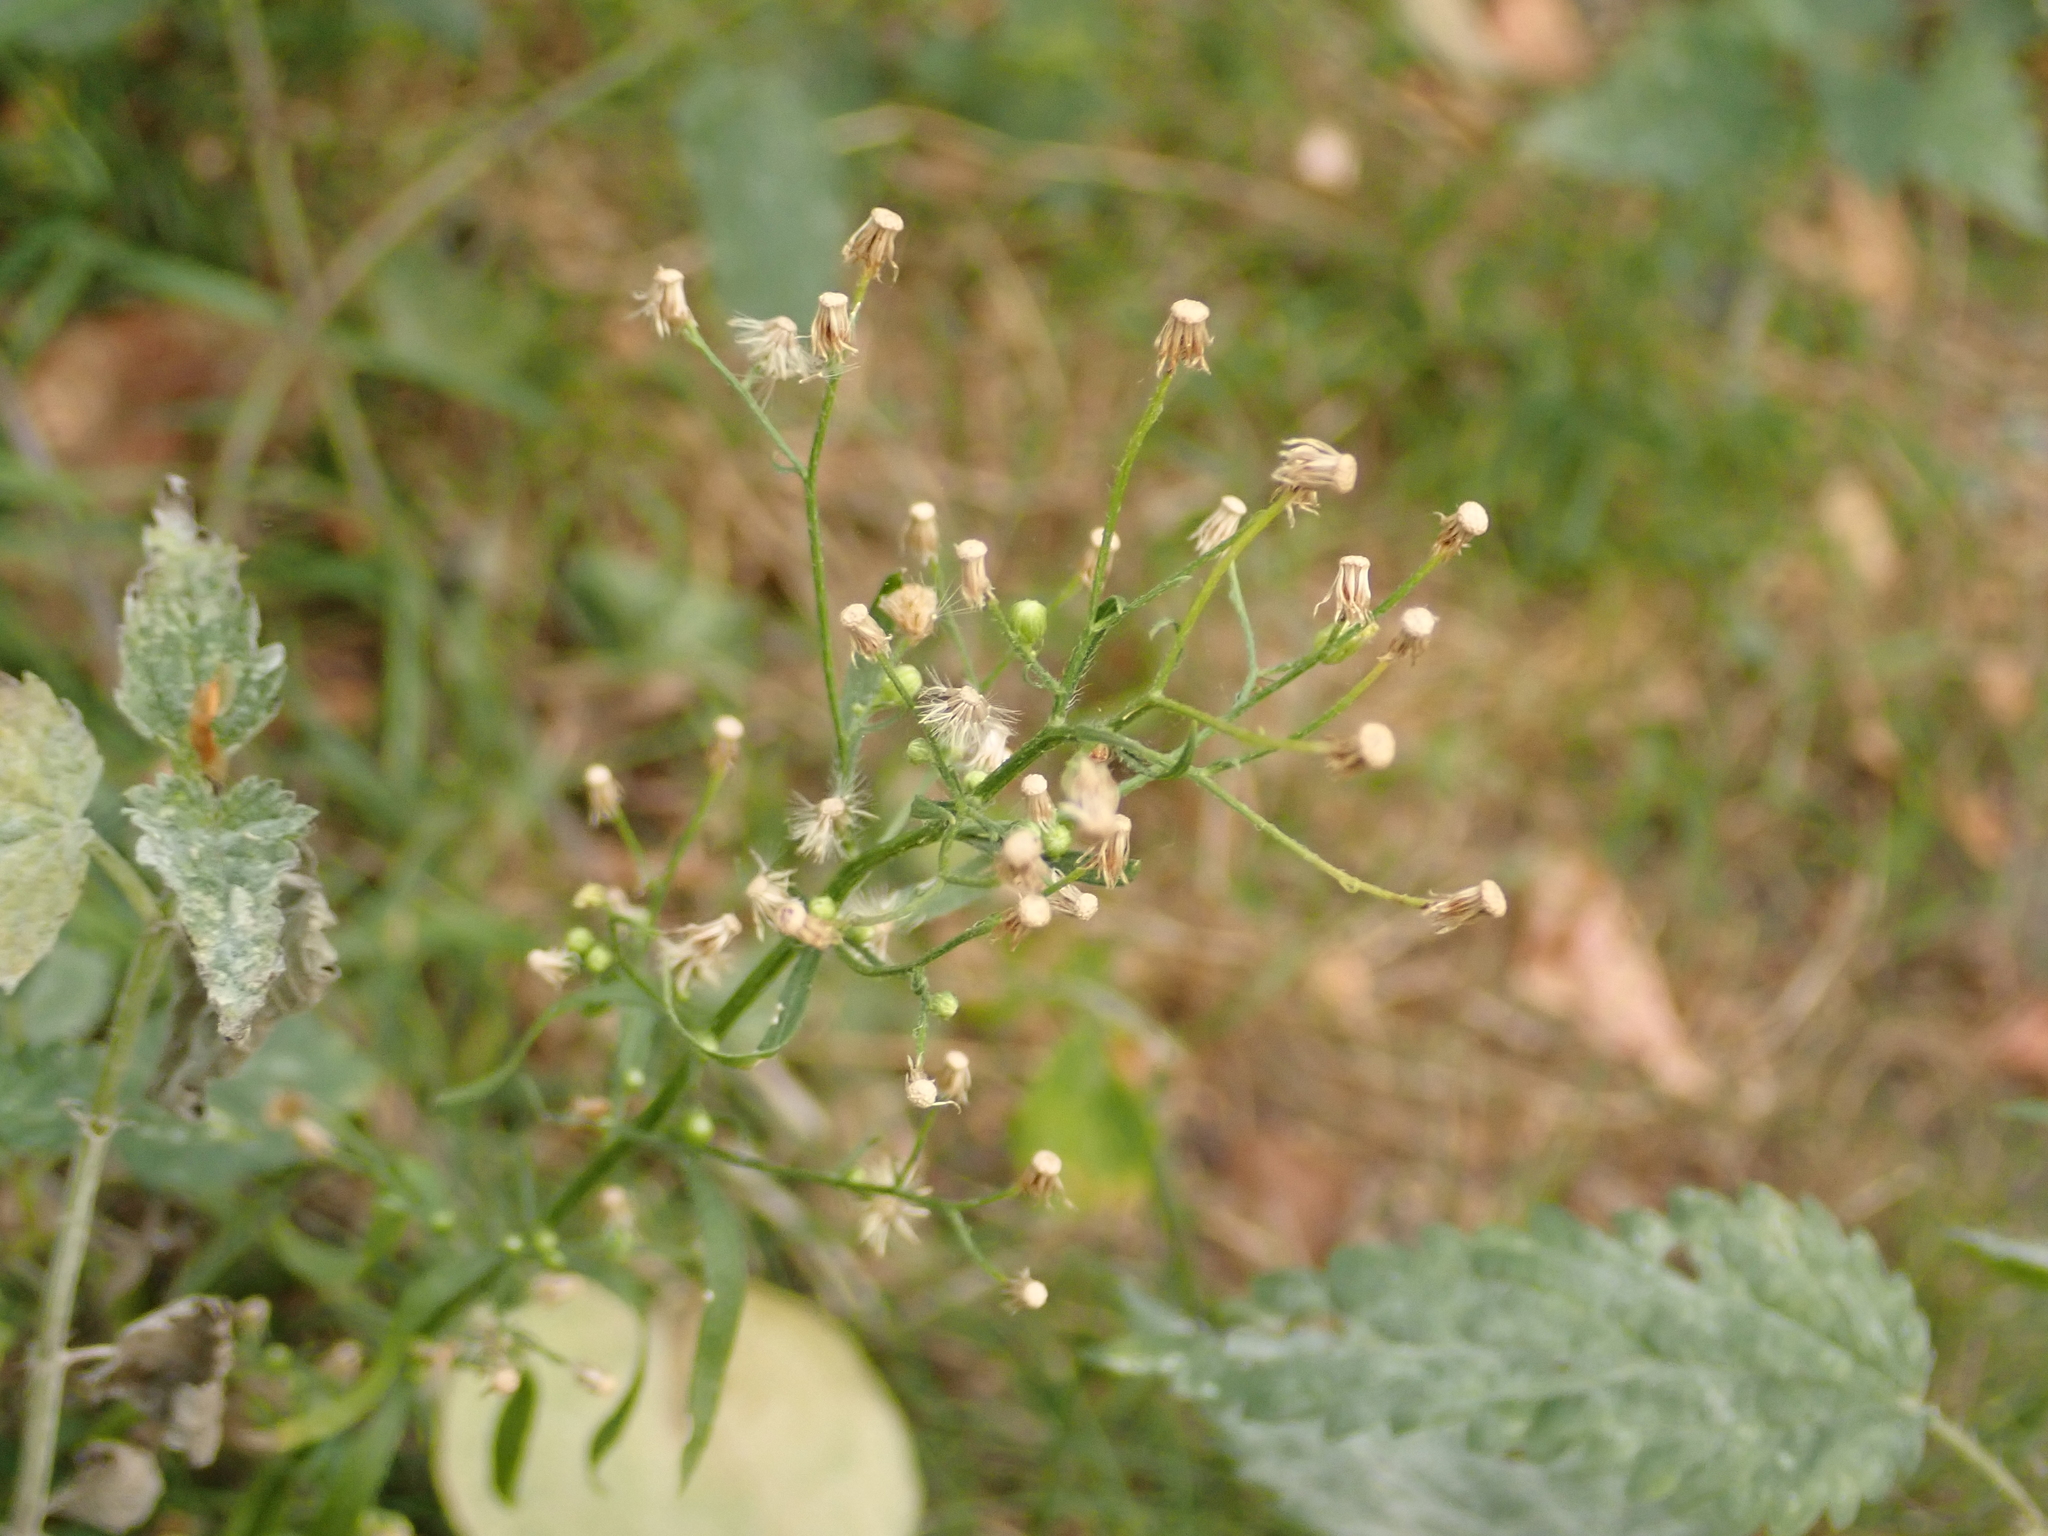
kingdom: Plantae
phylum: Tracheophyta
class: Magnoliopsida
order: Asterales
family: Asteraceae
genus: Erigeron
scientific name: Erigeron canadensis
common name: Canadian fleabane
